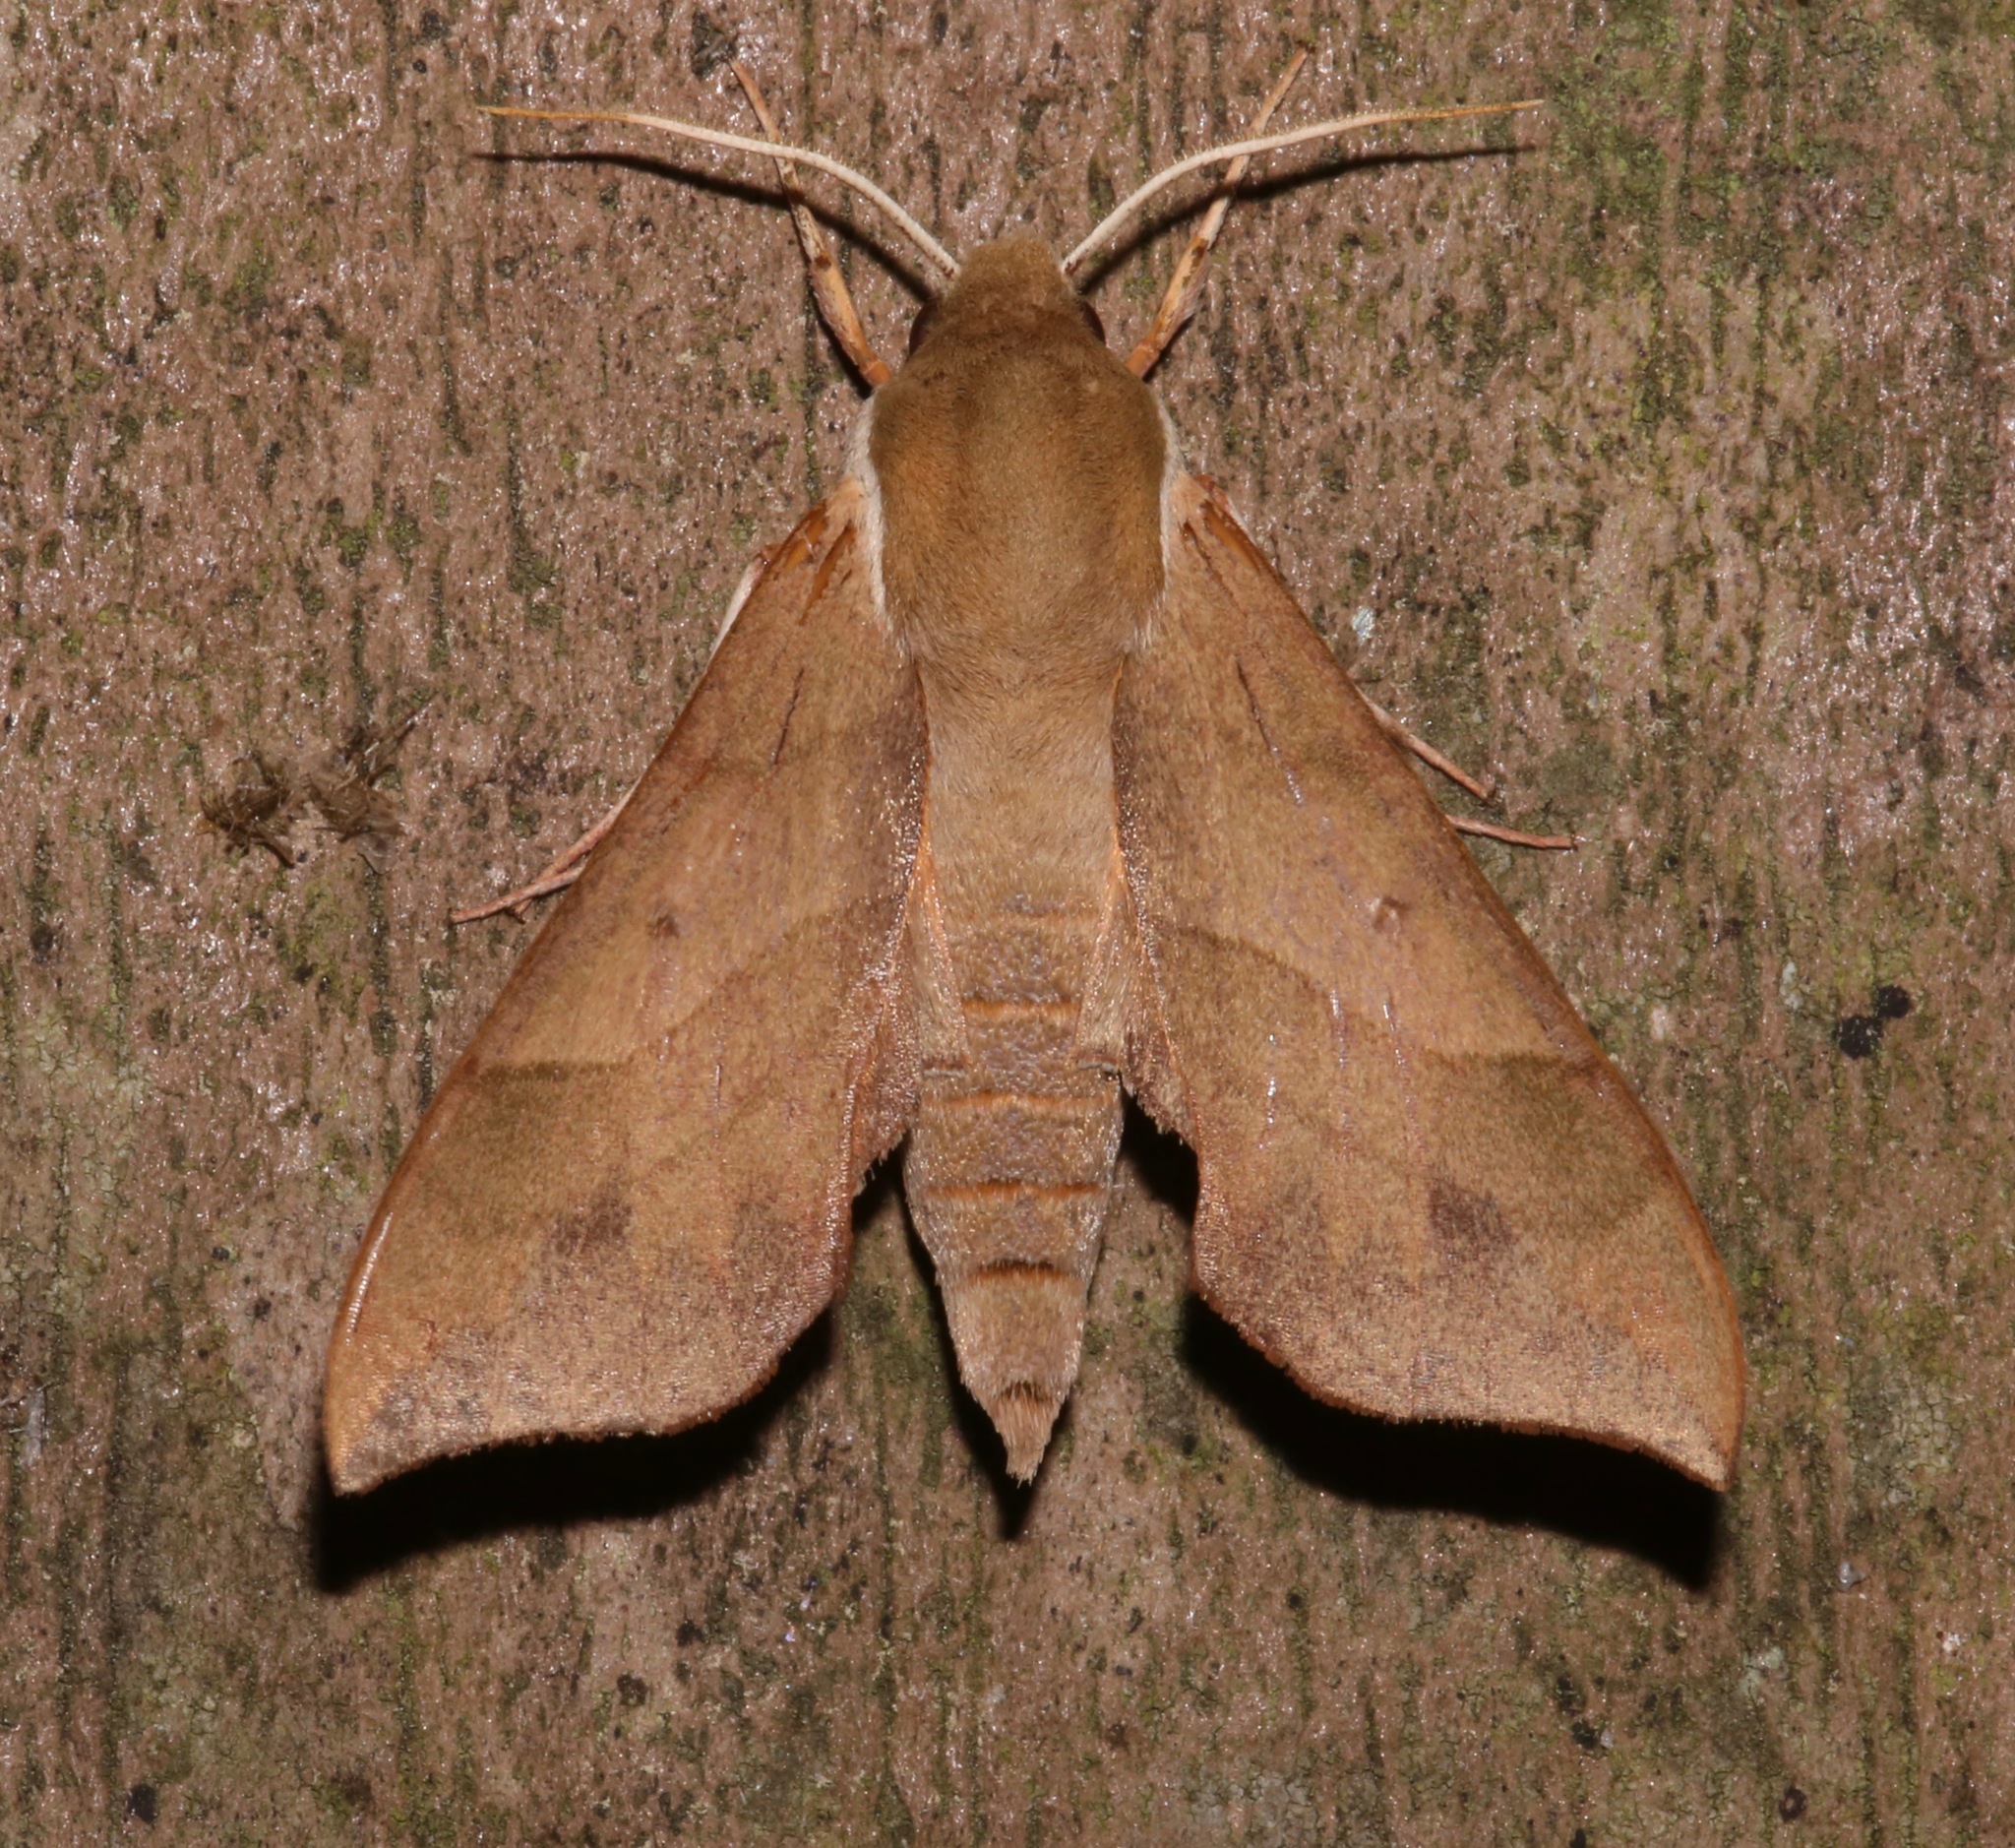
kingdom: Animalia
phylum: Arthropoda
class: Insecta
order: Lepidoptera
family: Sphingidae
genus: Darapsa
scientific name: Darapsa myron
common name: Hog sphinx
